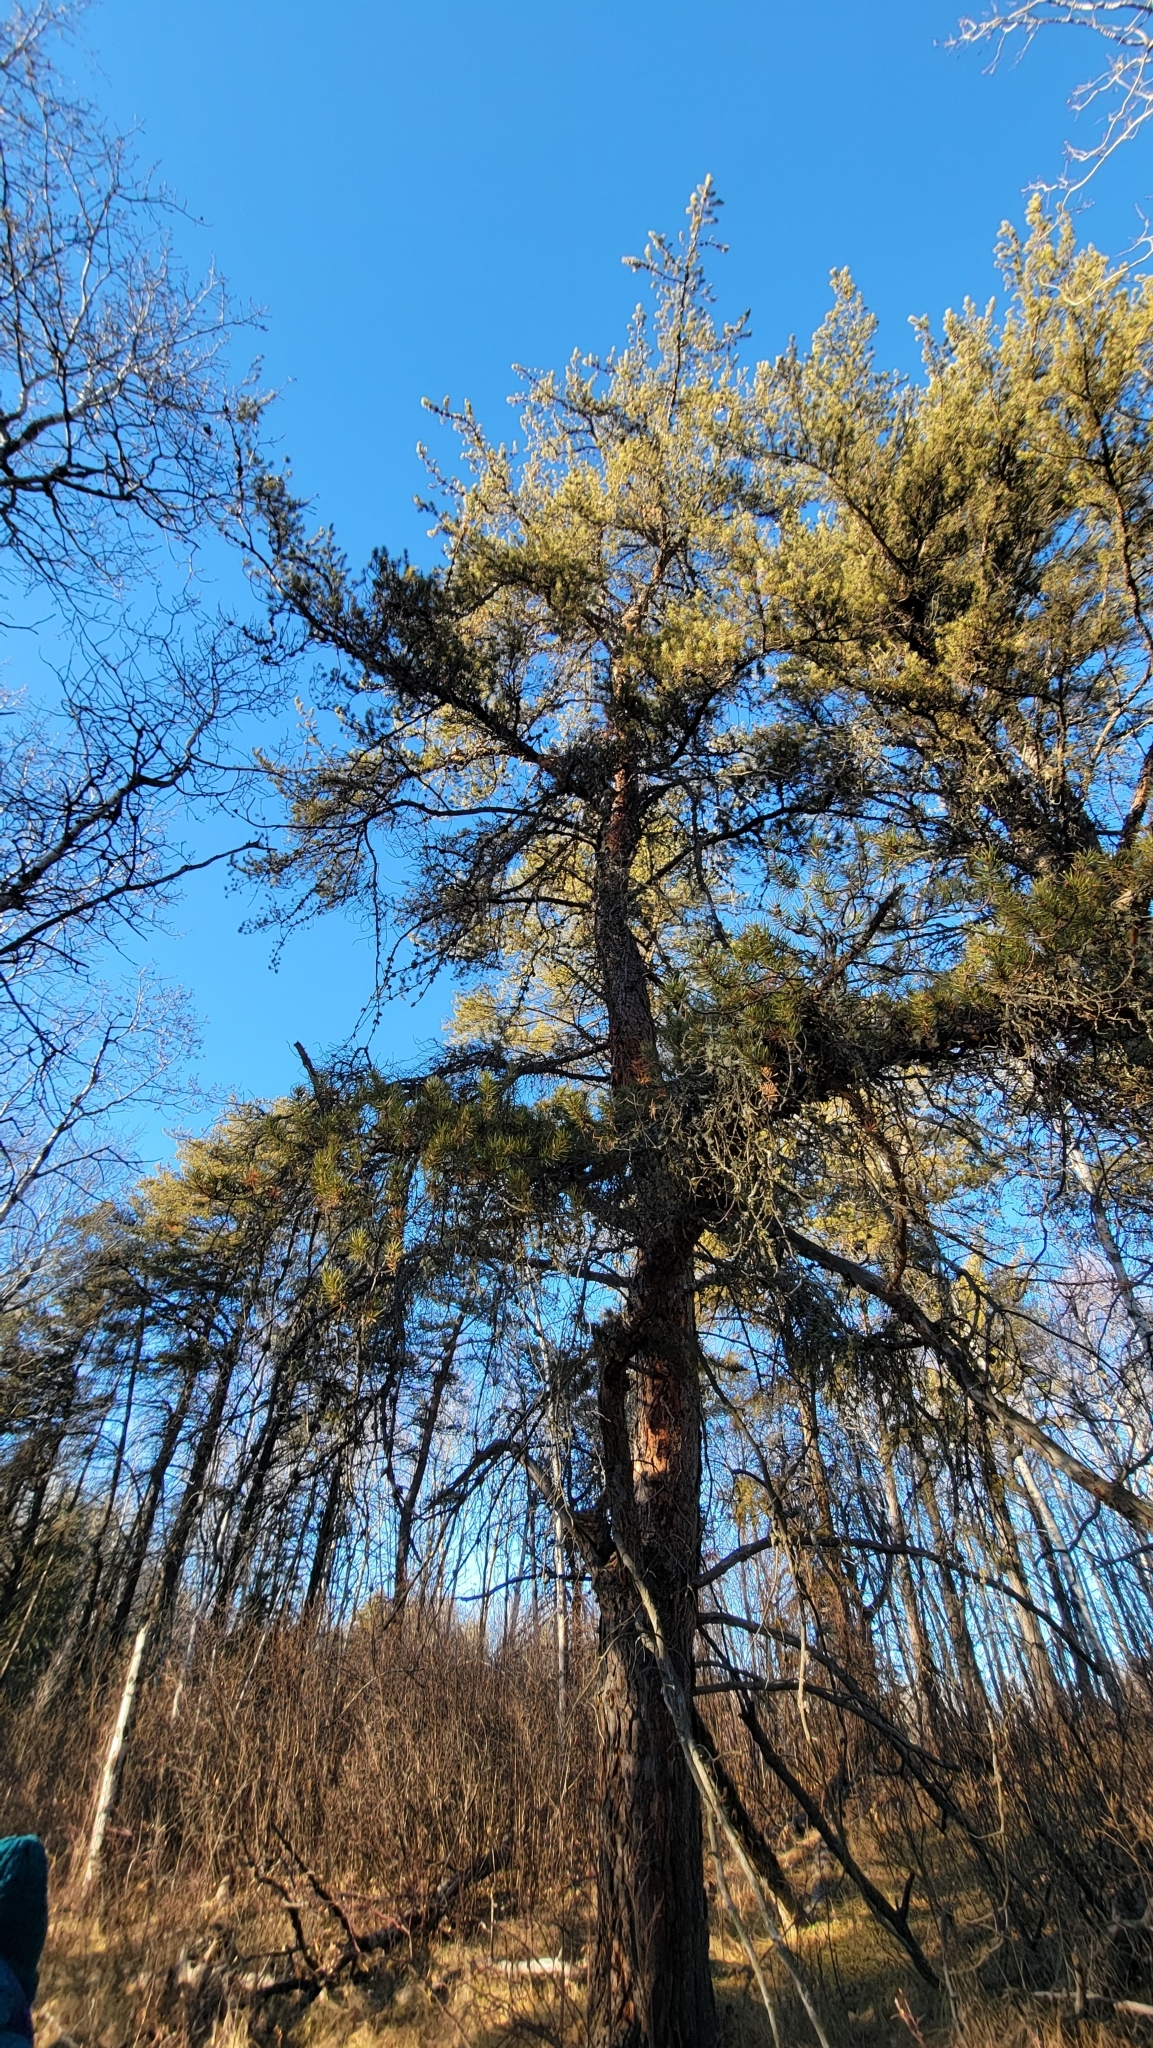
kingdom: Plantae
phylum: Tracheophyta
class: Pinopsida
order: Pinales
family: Pinaceae
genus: Pinus
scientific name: Pinus banksiana
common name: Jack pine
